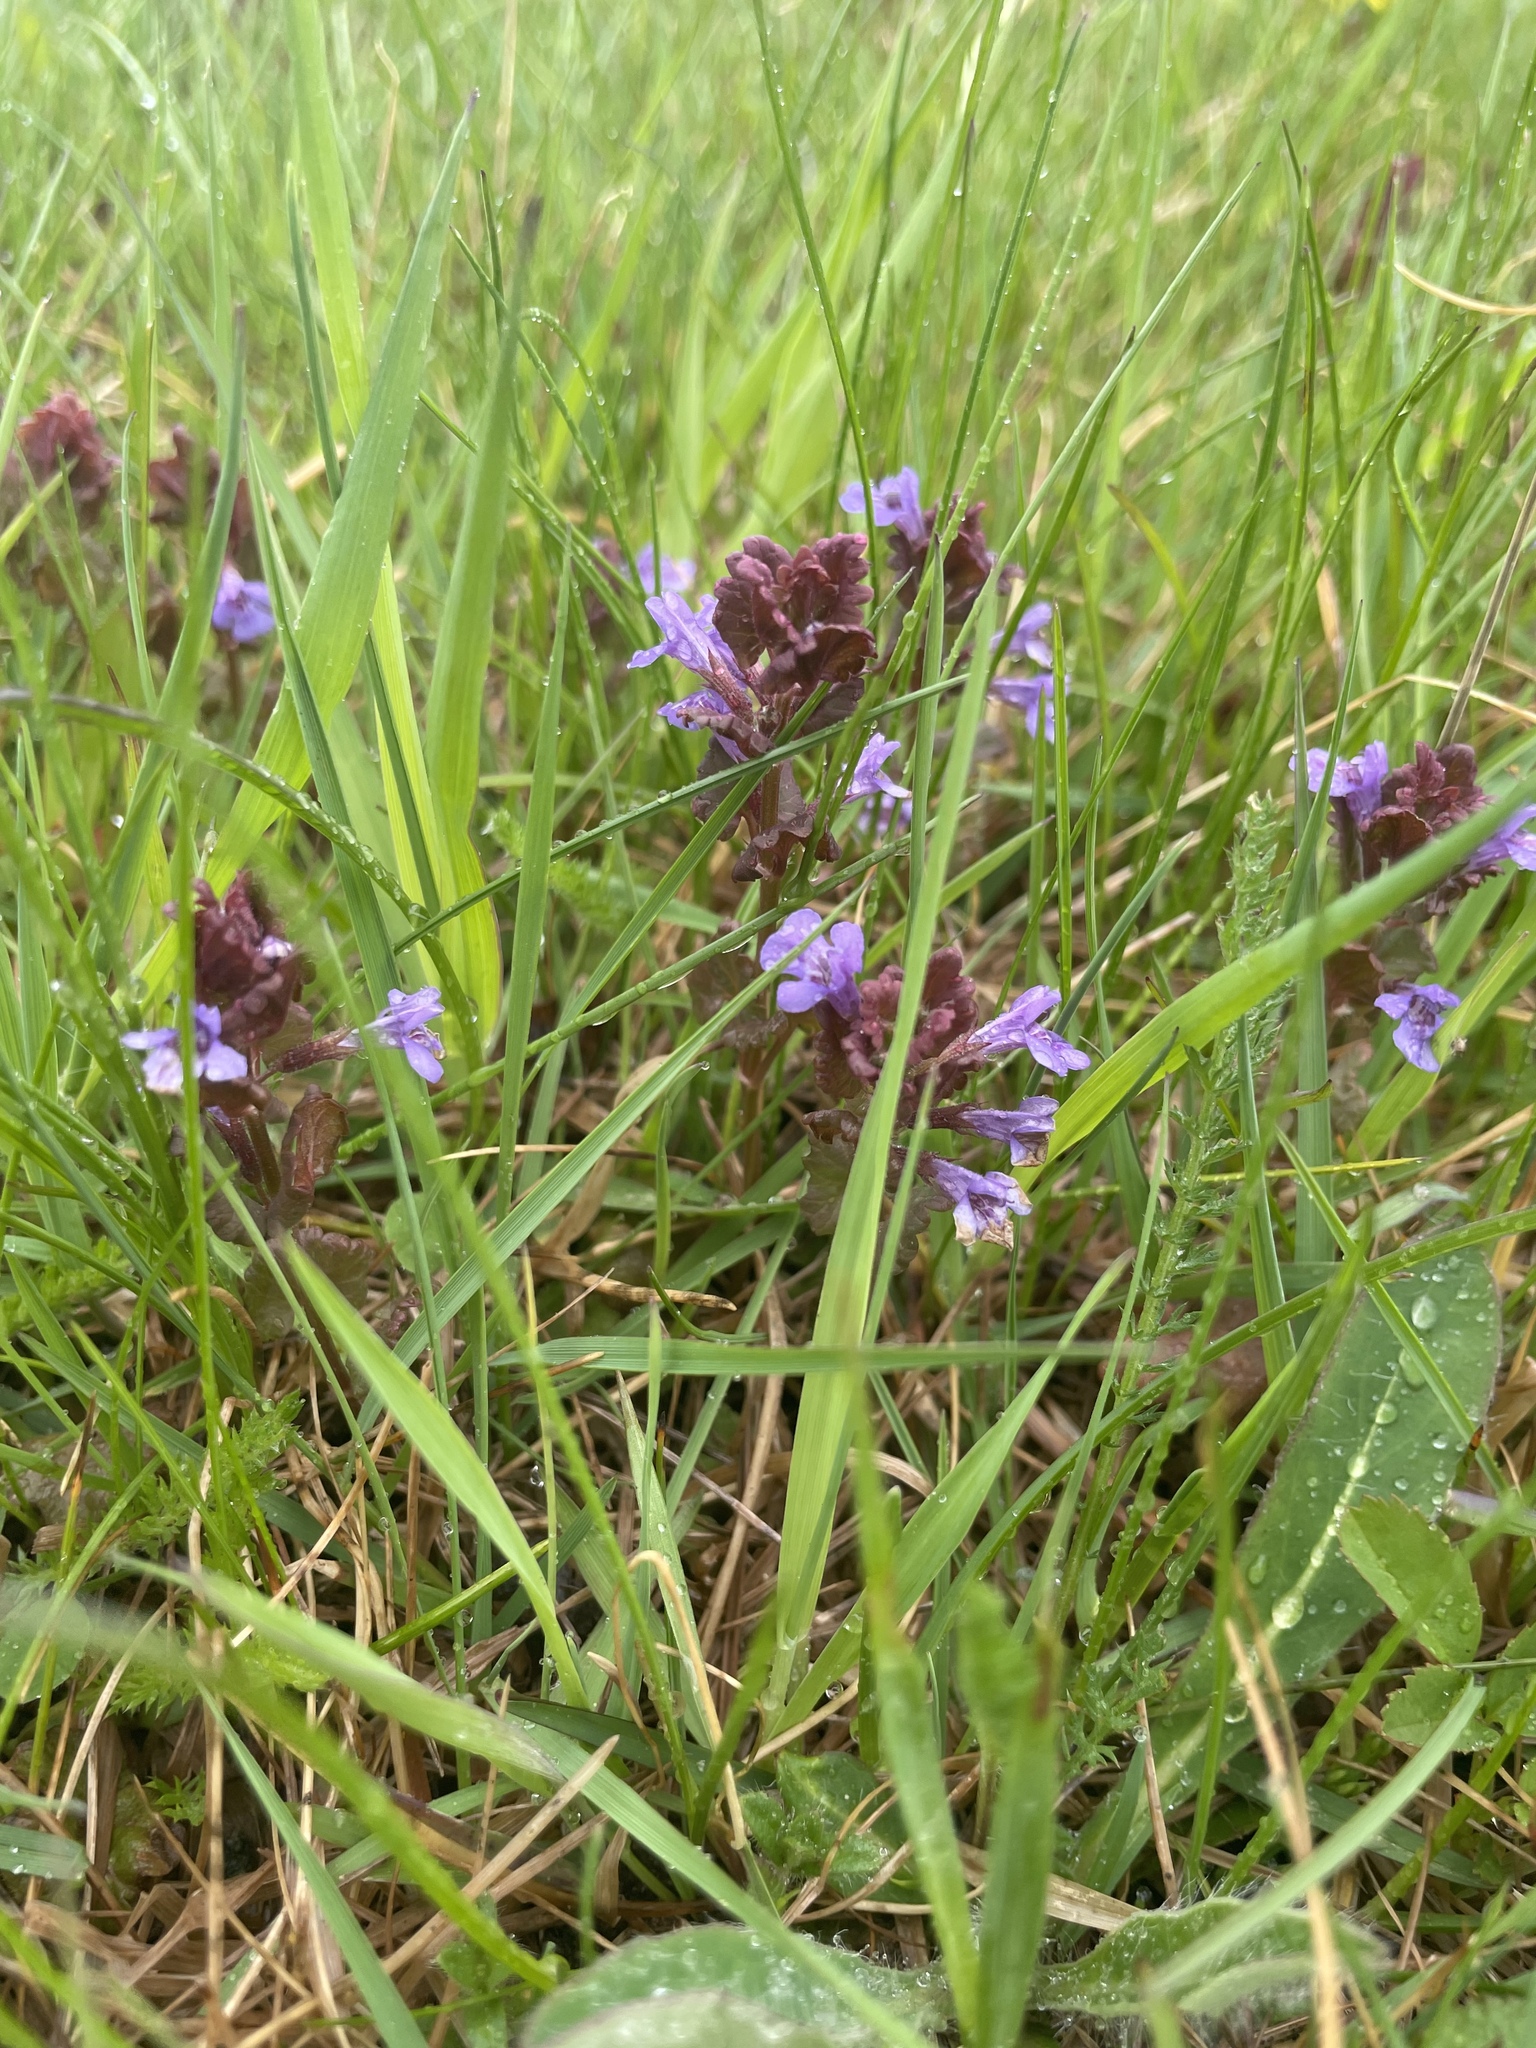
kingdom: Plantae
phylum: Tracheophyta
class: Magnoliopsida
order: Lamiales
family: Lamiaceae
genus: Glechoma
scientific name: Glechoma hederacea
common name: Ground ivy
